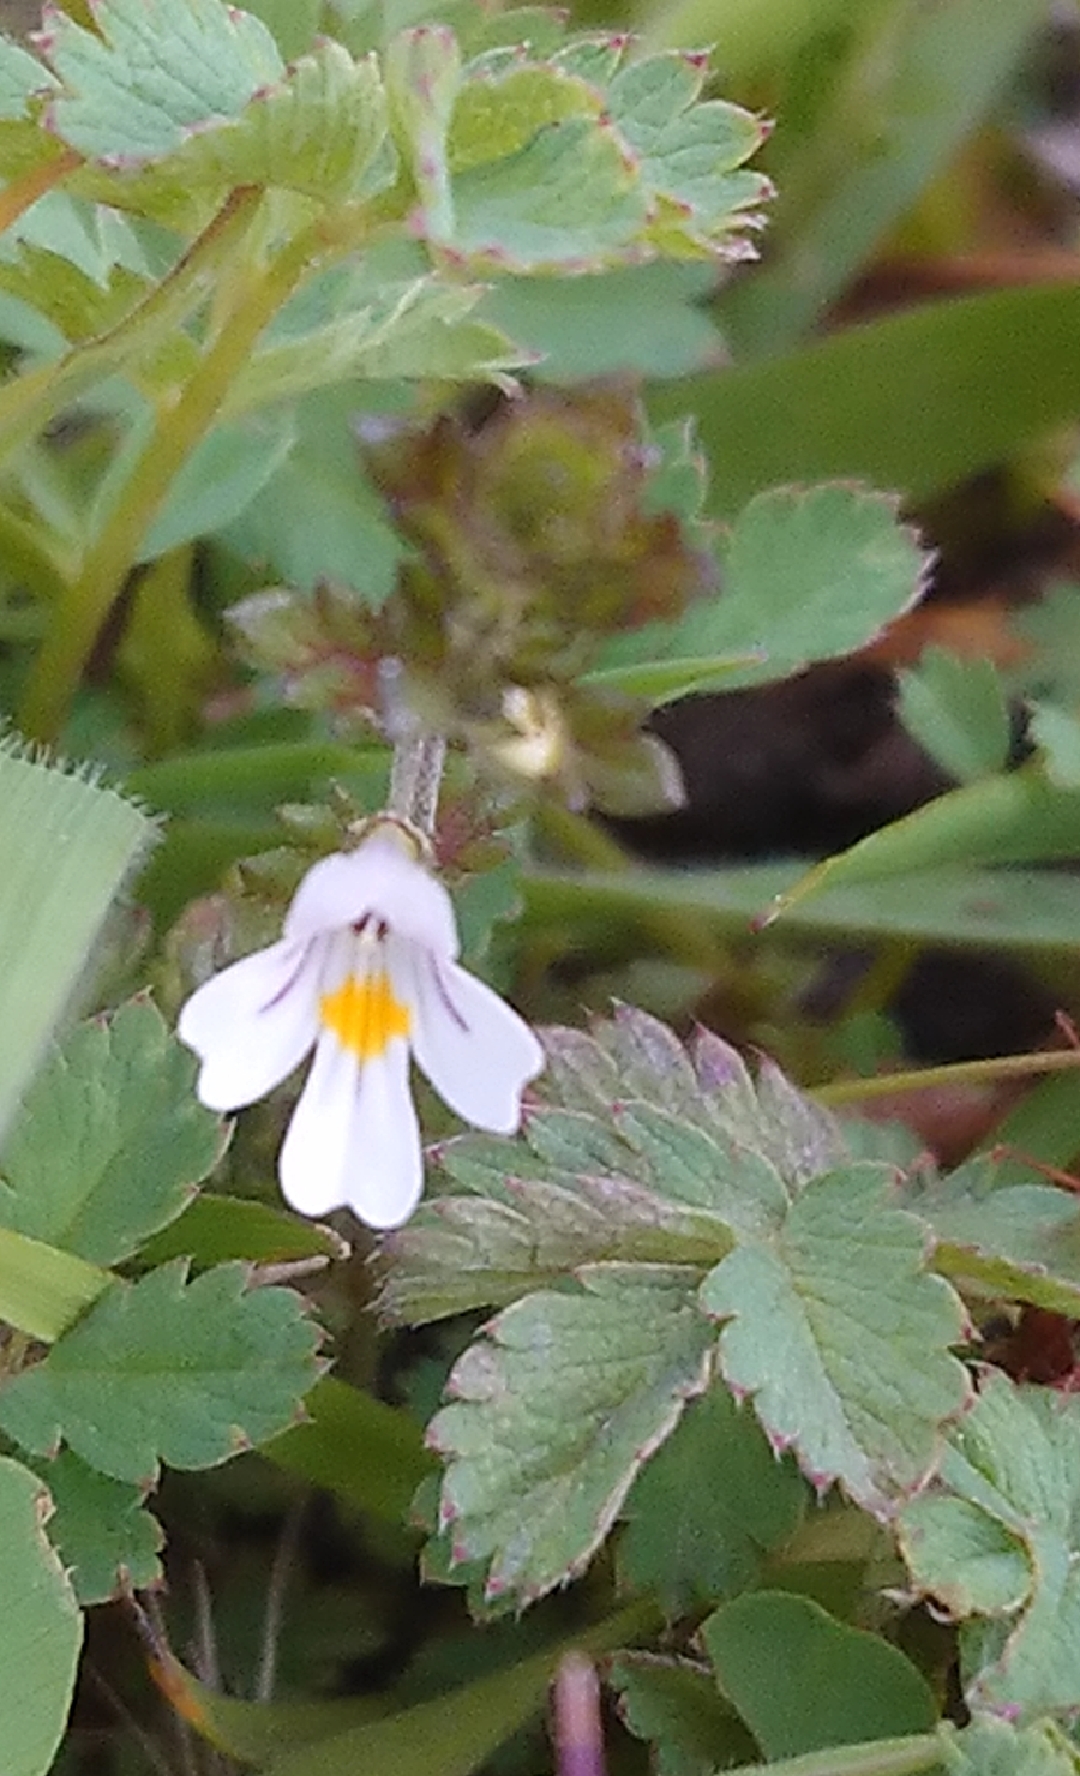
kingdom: Plantae
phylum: Tracheophyta
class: Magnoliopsida
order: Lamiales
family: Orobanchaceae
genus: Euphrasia
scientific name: Euphrasia officinalis
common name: Eyebright
